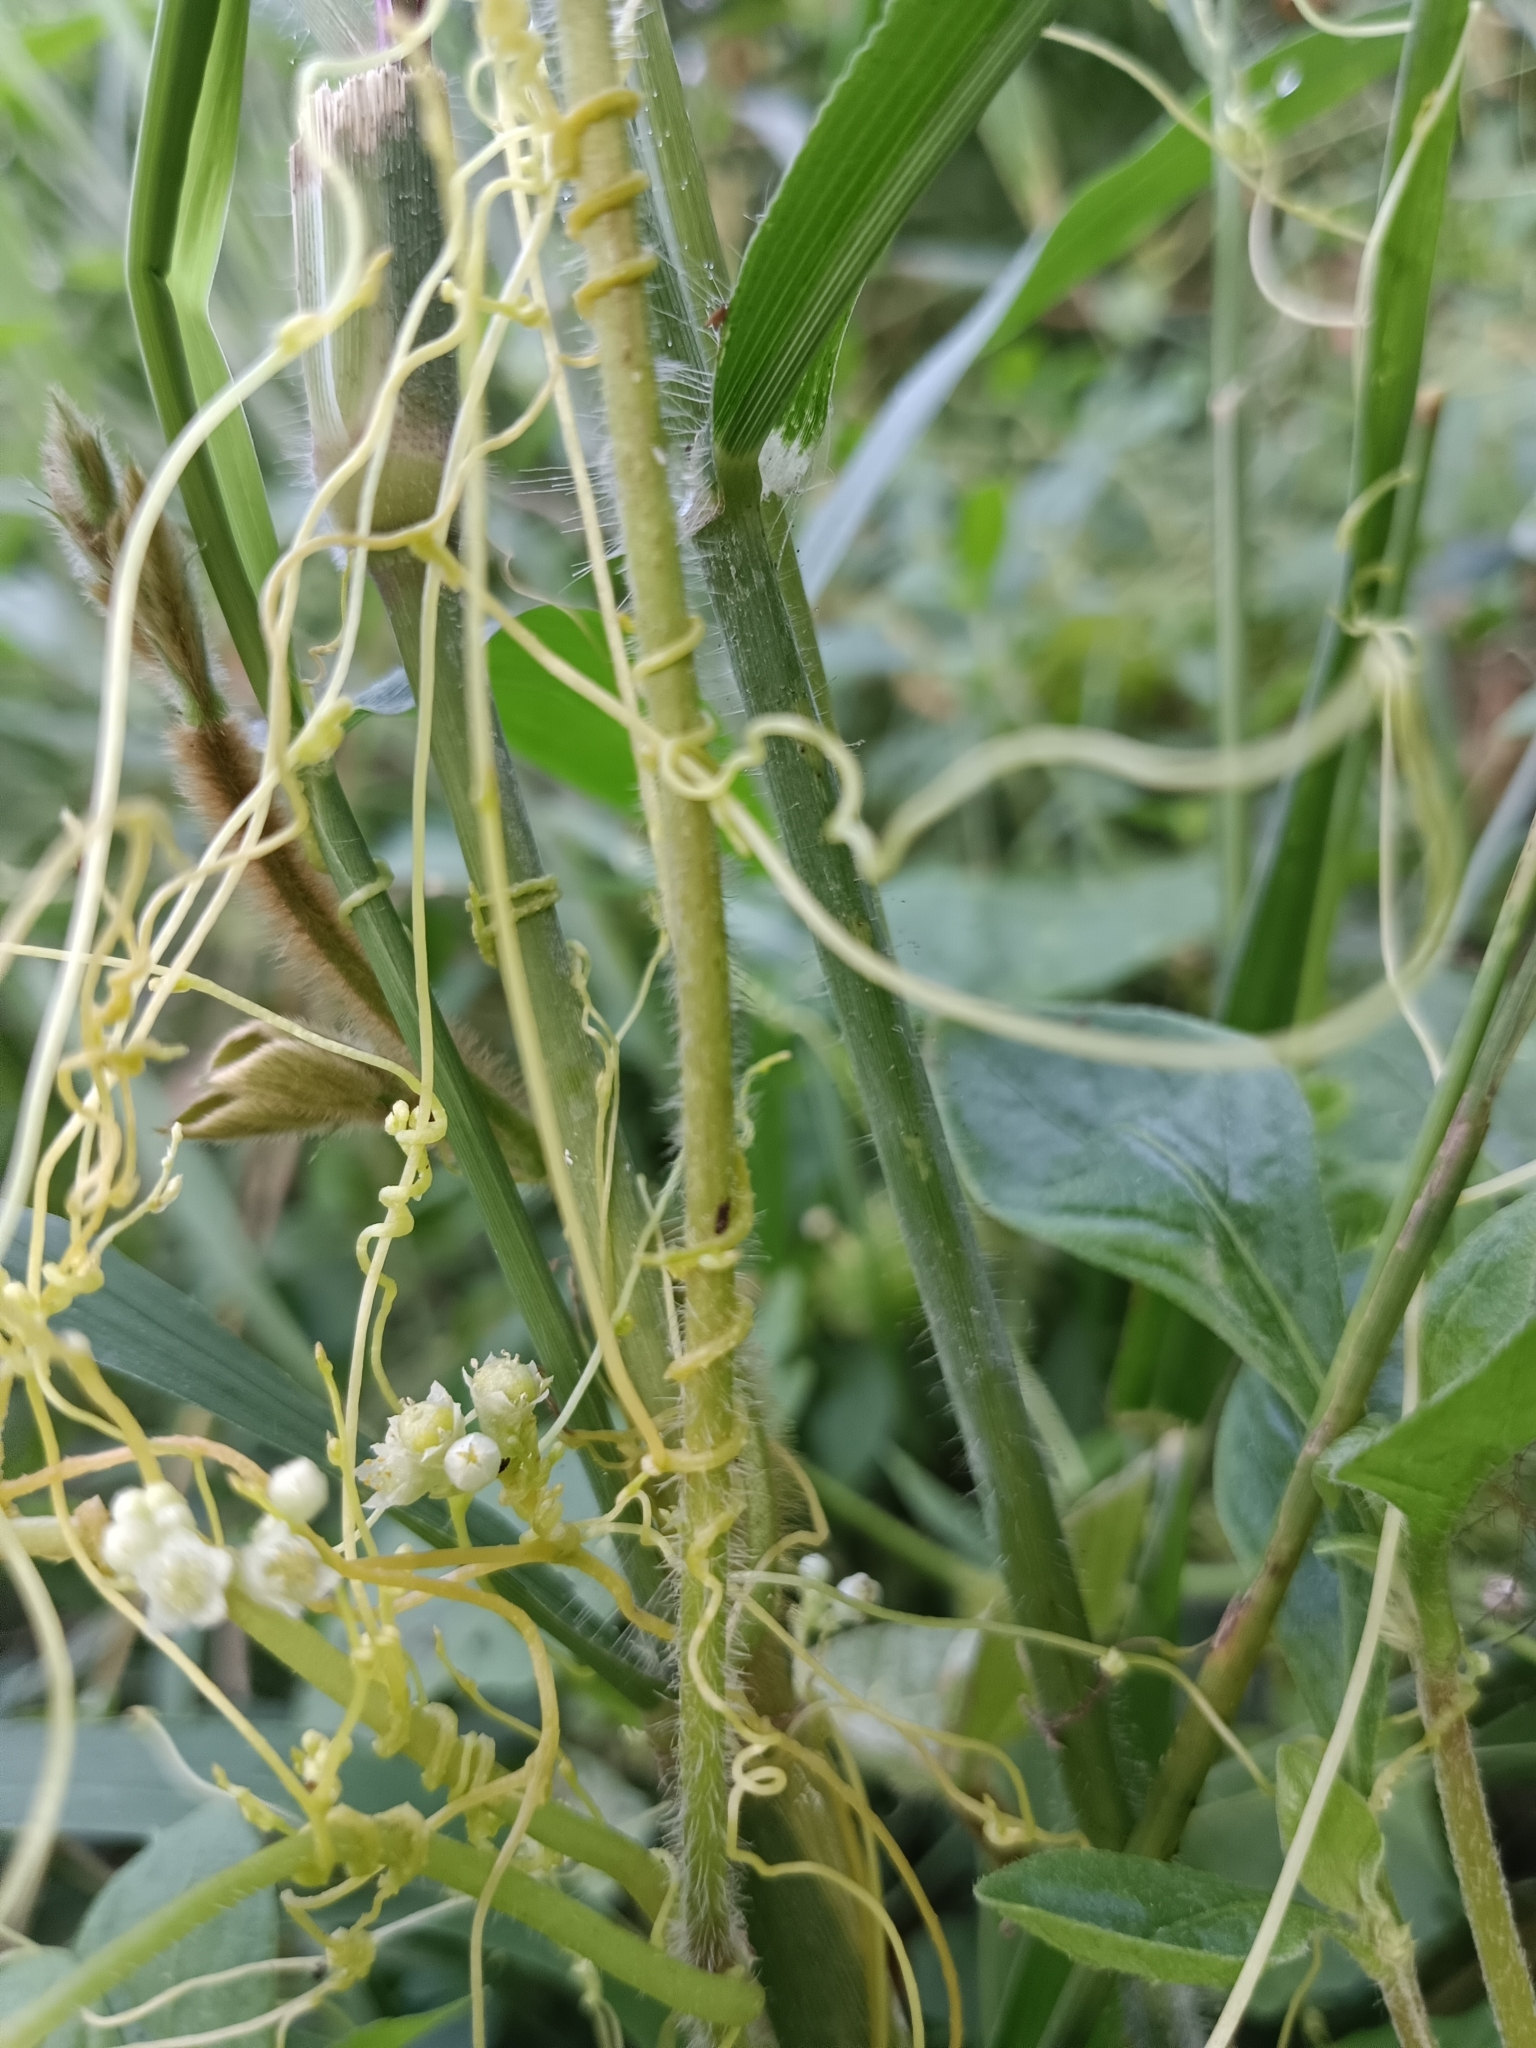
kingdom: Plantae
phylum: Tracheophyta
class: Magnoliopsida
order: Solanales
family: Convolvulaceae
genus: Cuscuta
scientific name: Cuscuta campestris
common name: Yellow dodder
